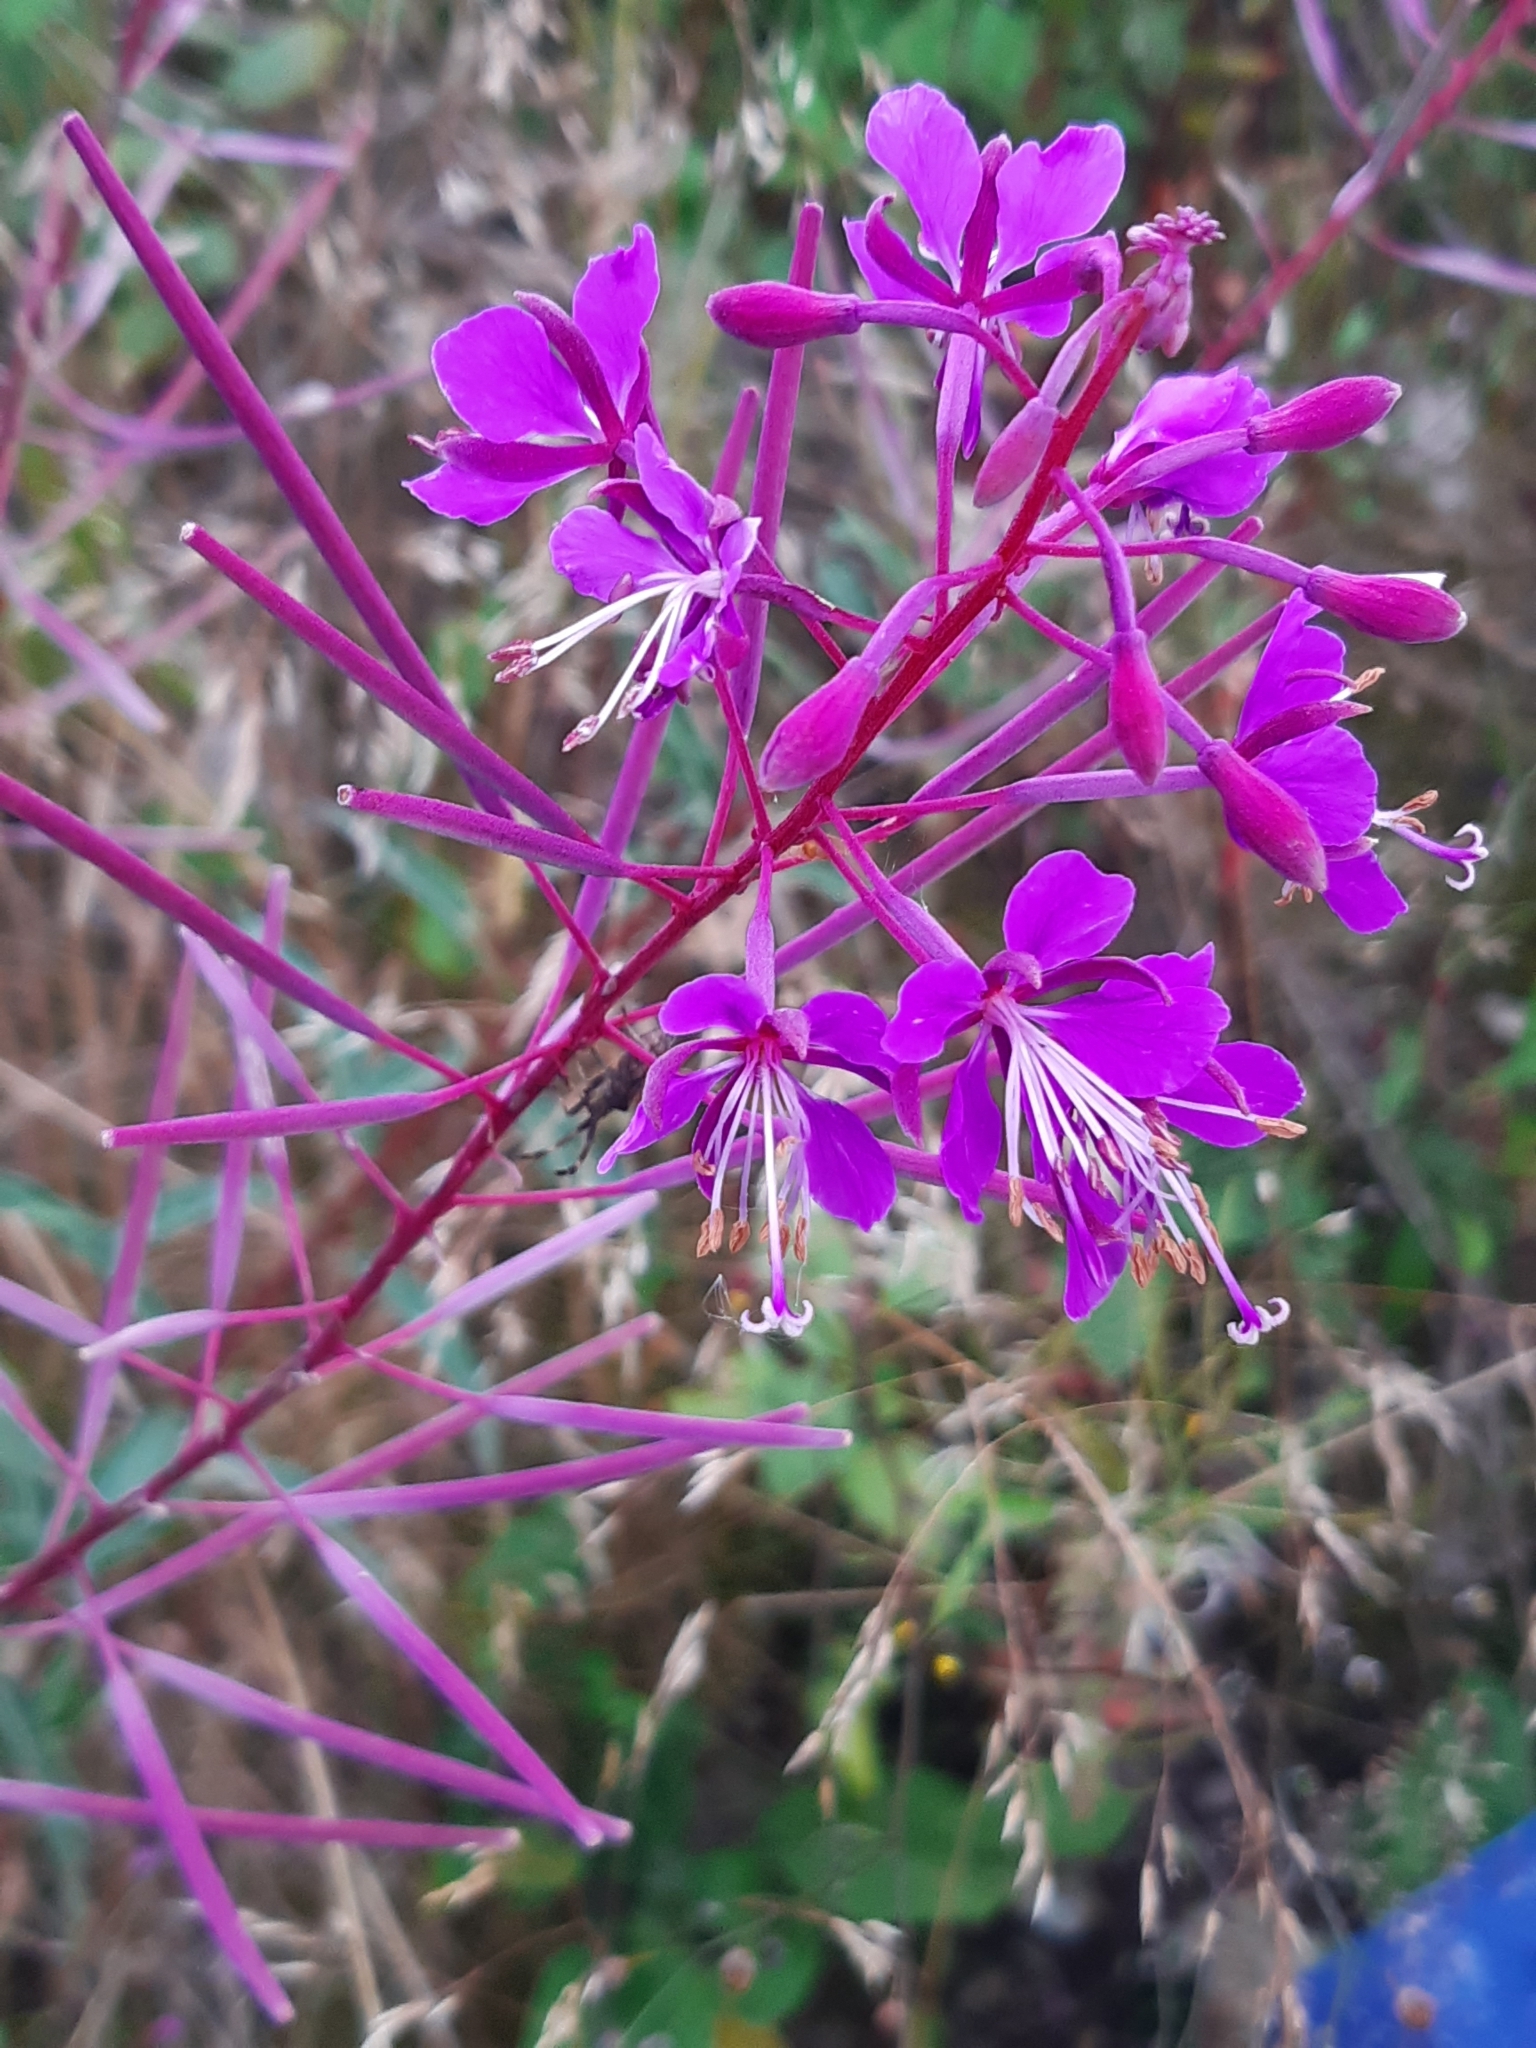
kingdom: Plantae
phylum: Tracheophyta
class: Magnoliopsida
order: Myrtales
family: Onagraceae
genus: Chamaenerion
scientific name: Chamaenerion angustifolium
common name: Fireweed
